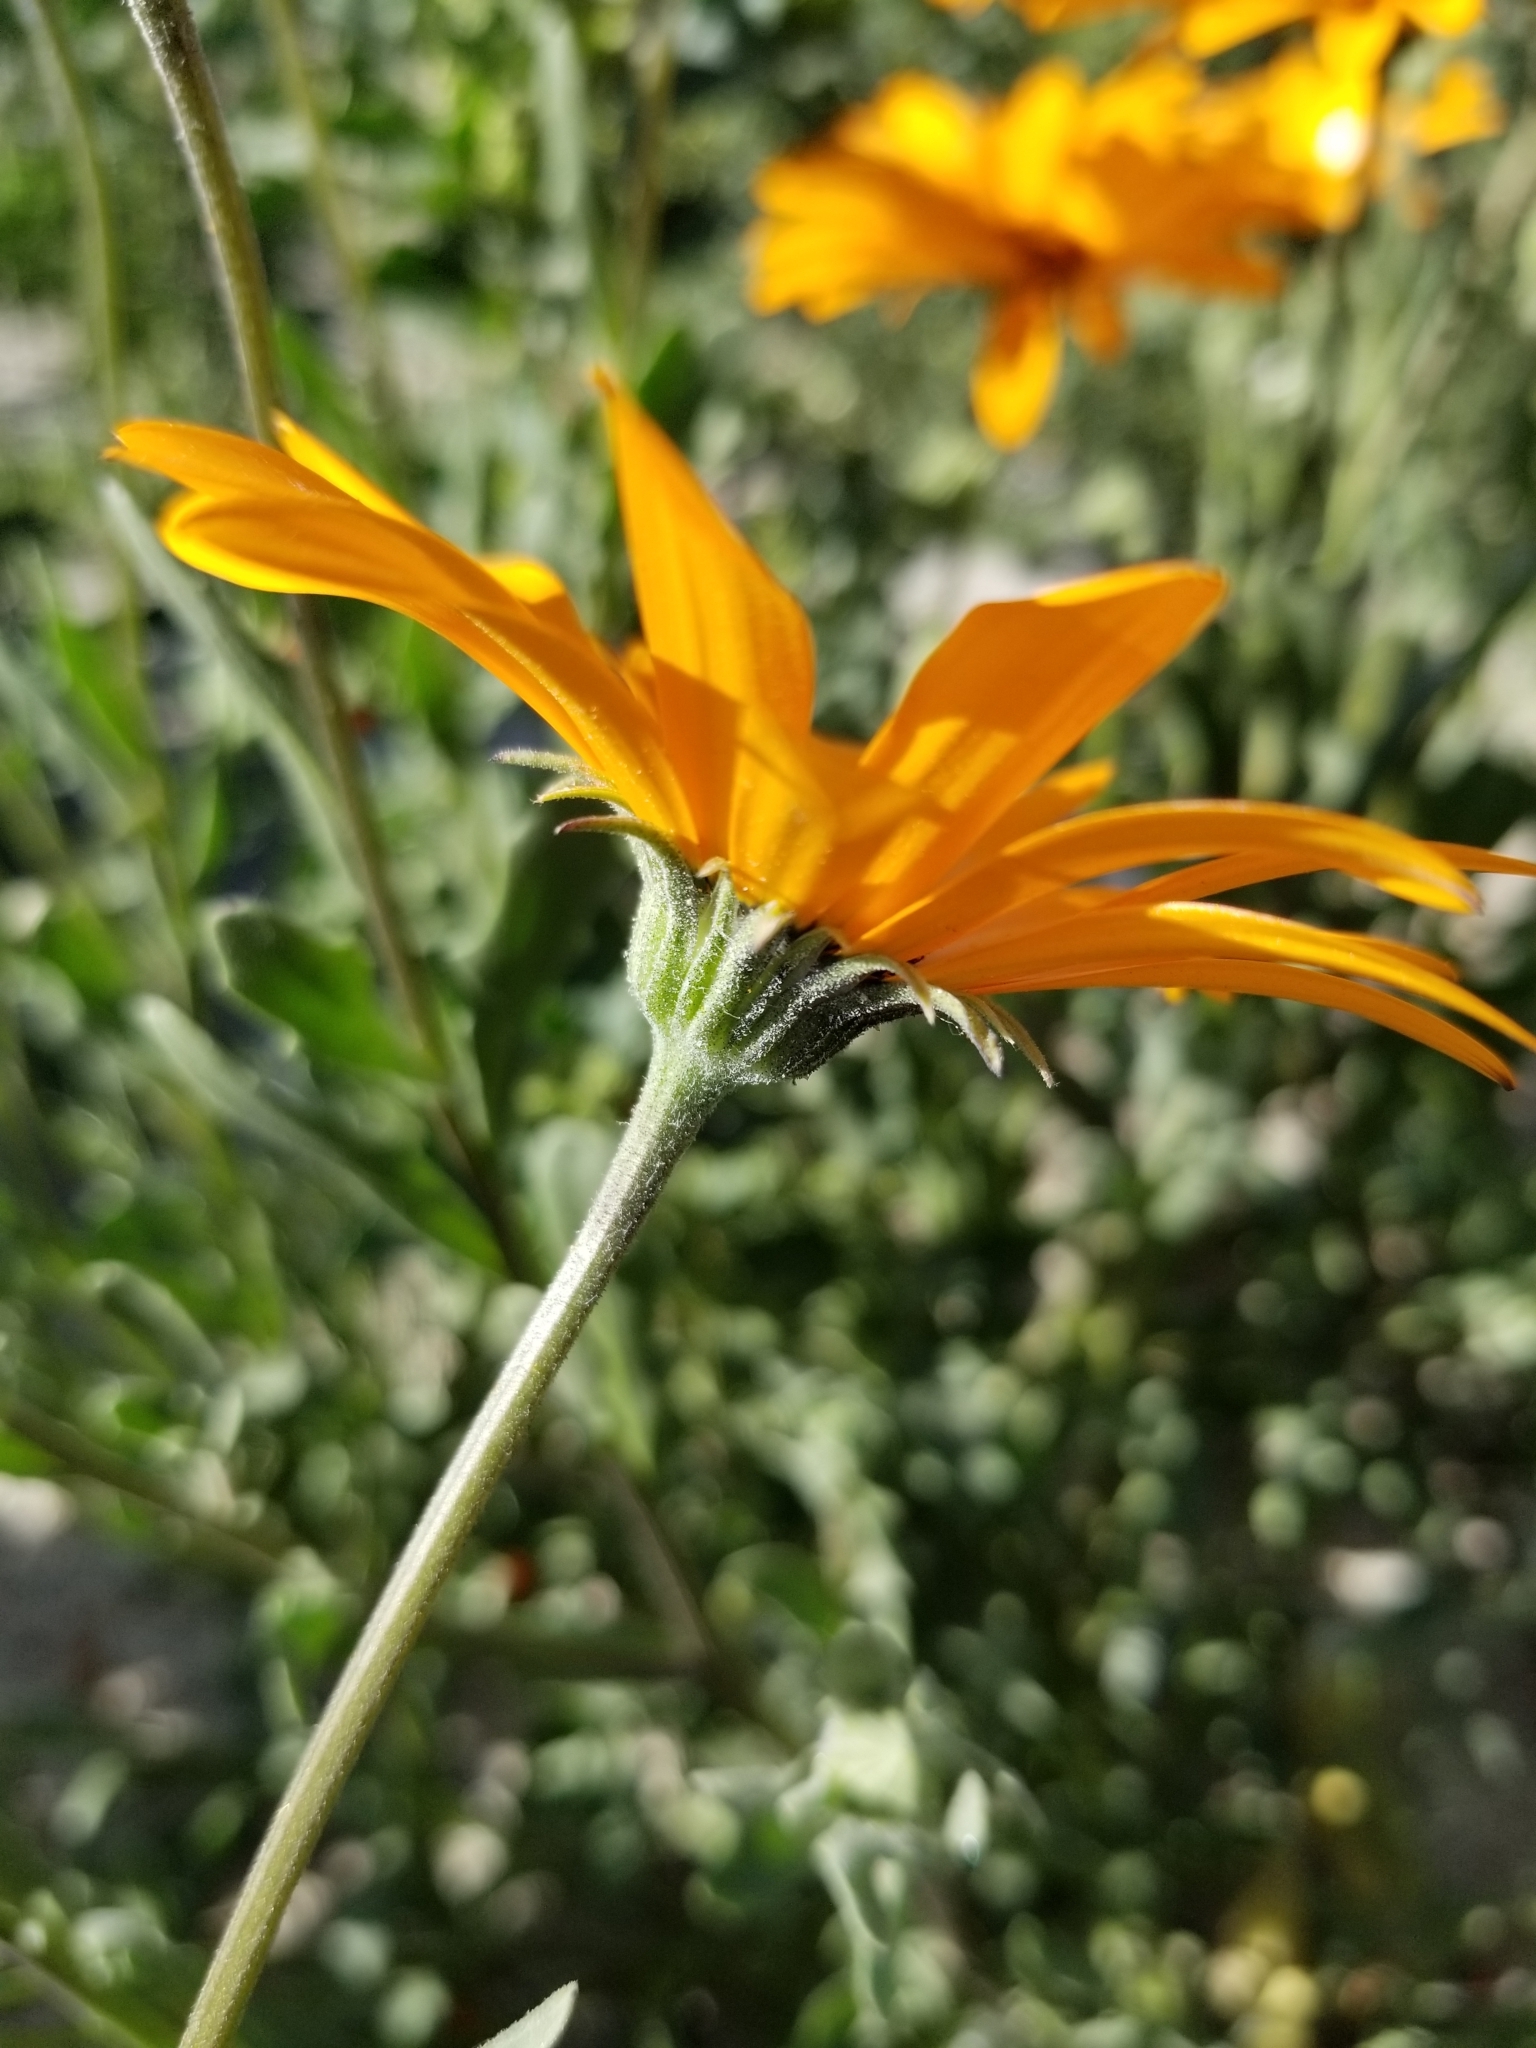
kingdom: Plantae
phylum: Tracheophyta
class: Magnoliopsida
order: Asterales
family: Asteraceae
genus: Dimorphotheca
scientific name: Dimorphotheca sinuata
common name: Glandular cape marigold
